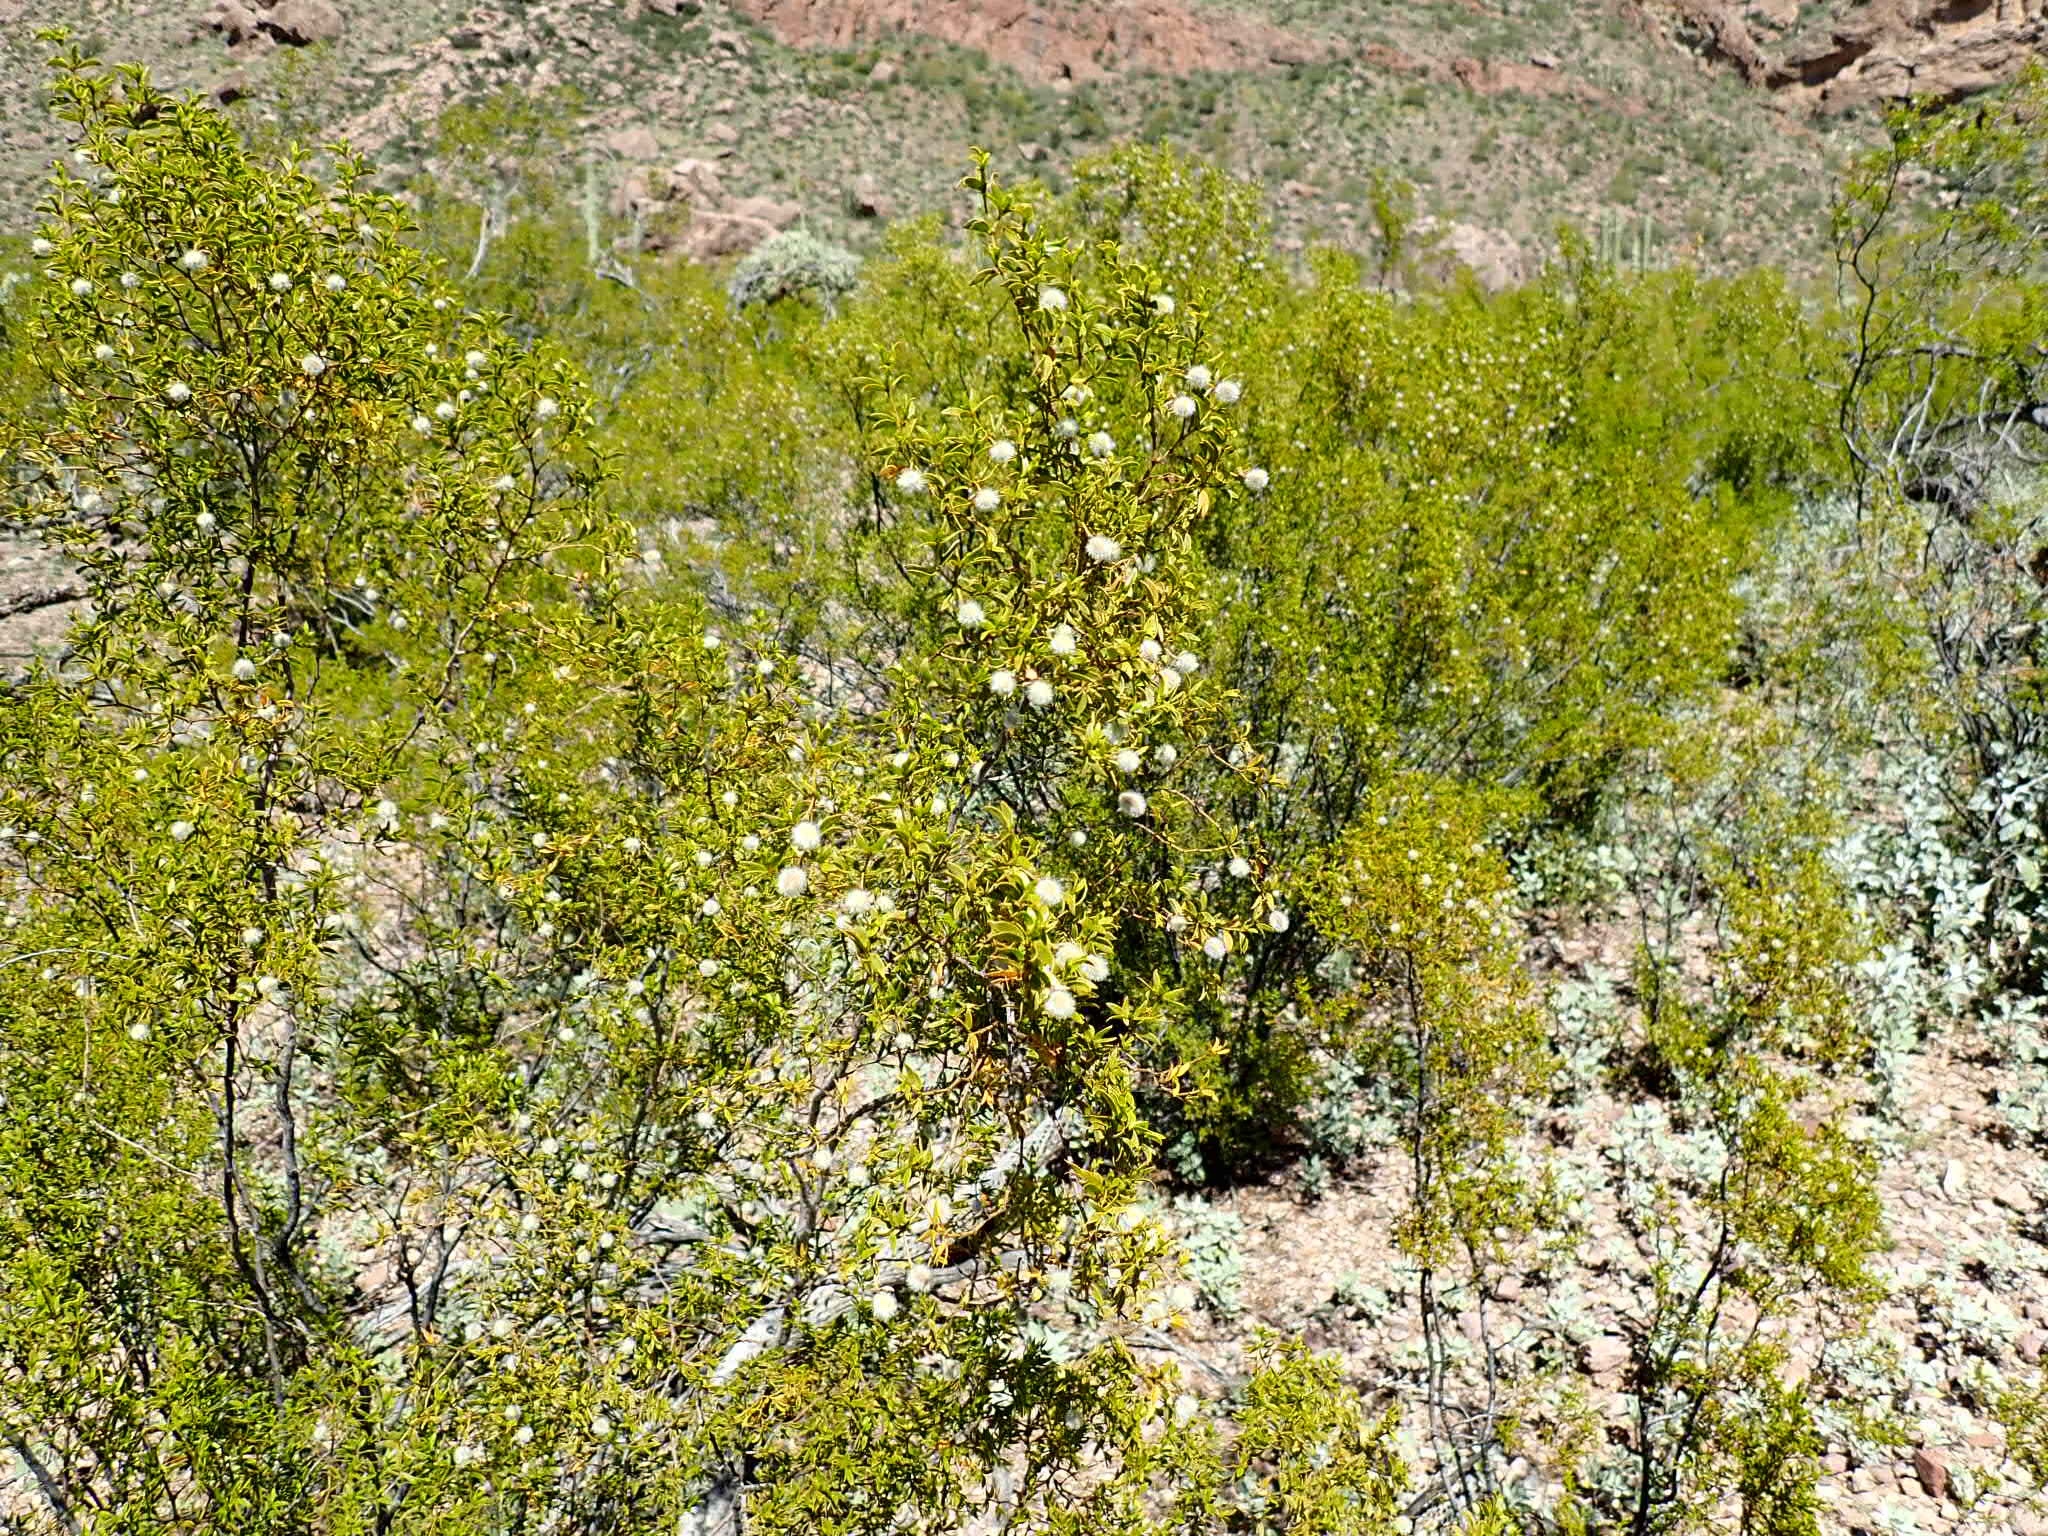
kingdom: Plantae
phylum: Tracheophyta
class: Magnoliopsida
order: Zygophyllales
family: Zygophyllaceae
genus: Larrea
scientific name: Larrea tridentata
